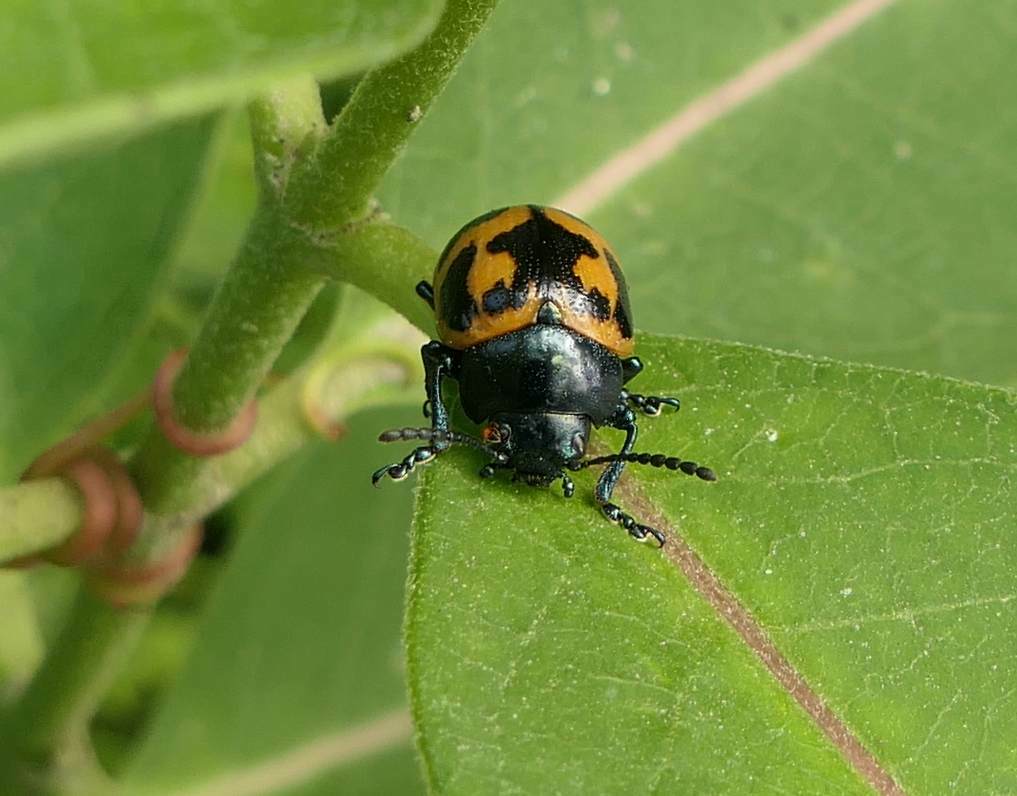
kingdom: Animalia
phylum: Arthropoda
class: Insecta
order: Coleoptera
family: Chrysomelidae
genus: Labidomera
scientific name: Labidomera clivicollis
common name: Swamp milkweed leaf beetle
